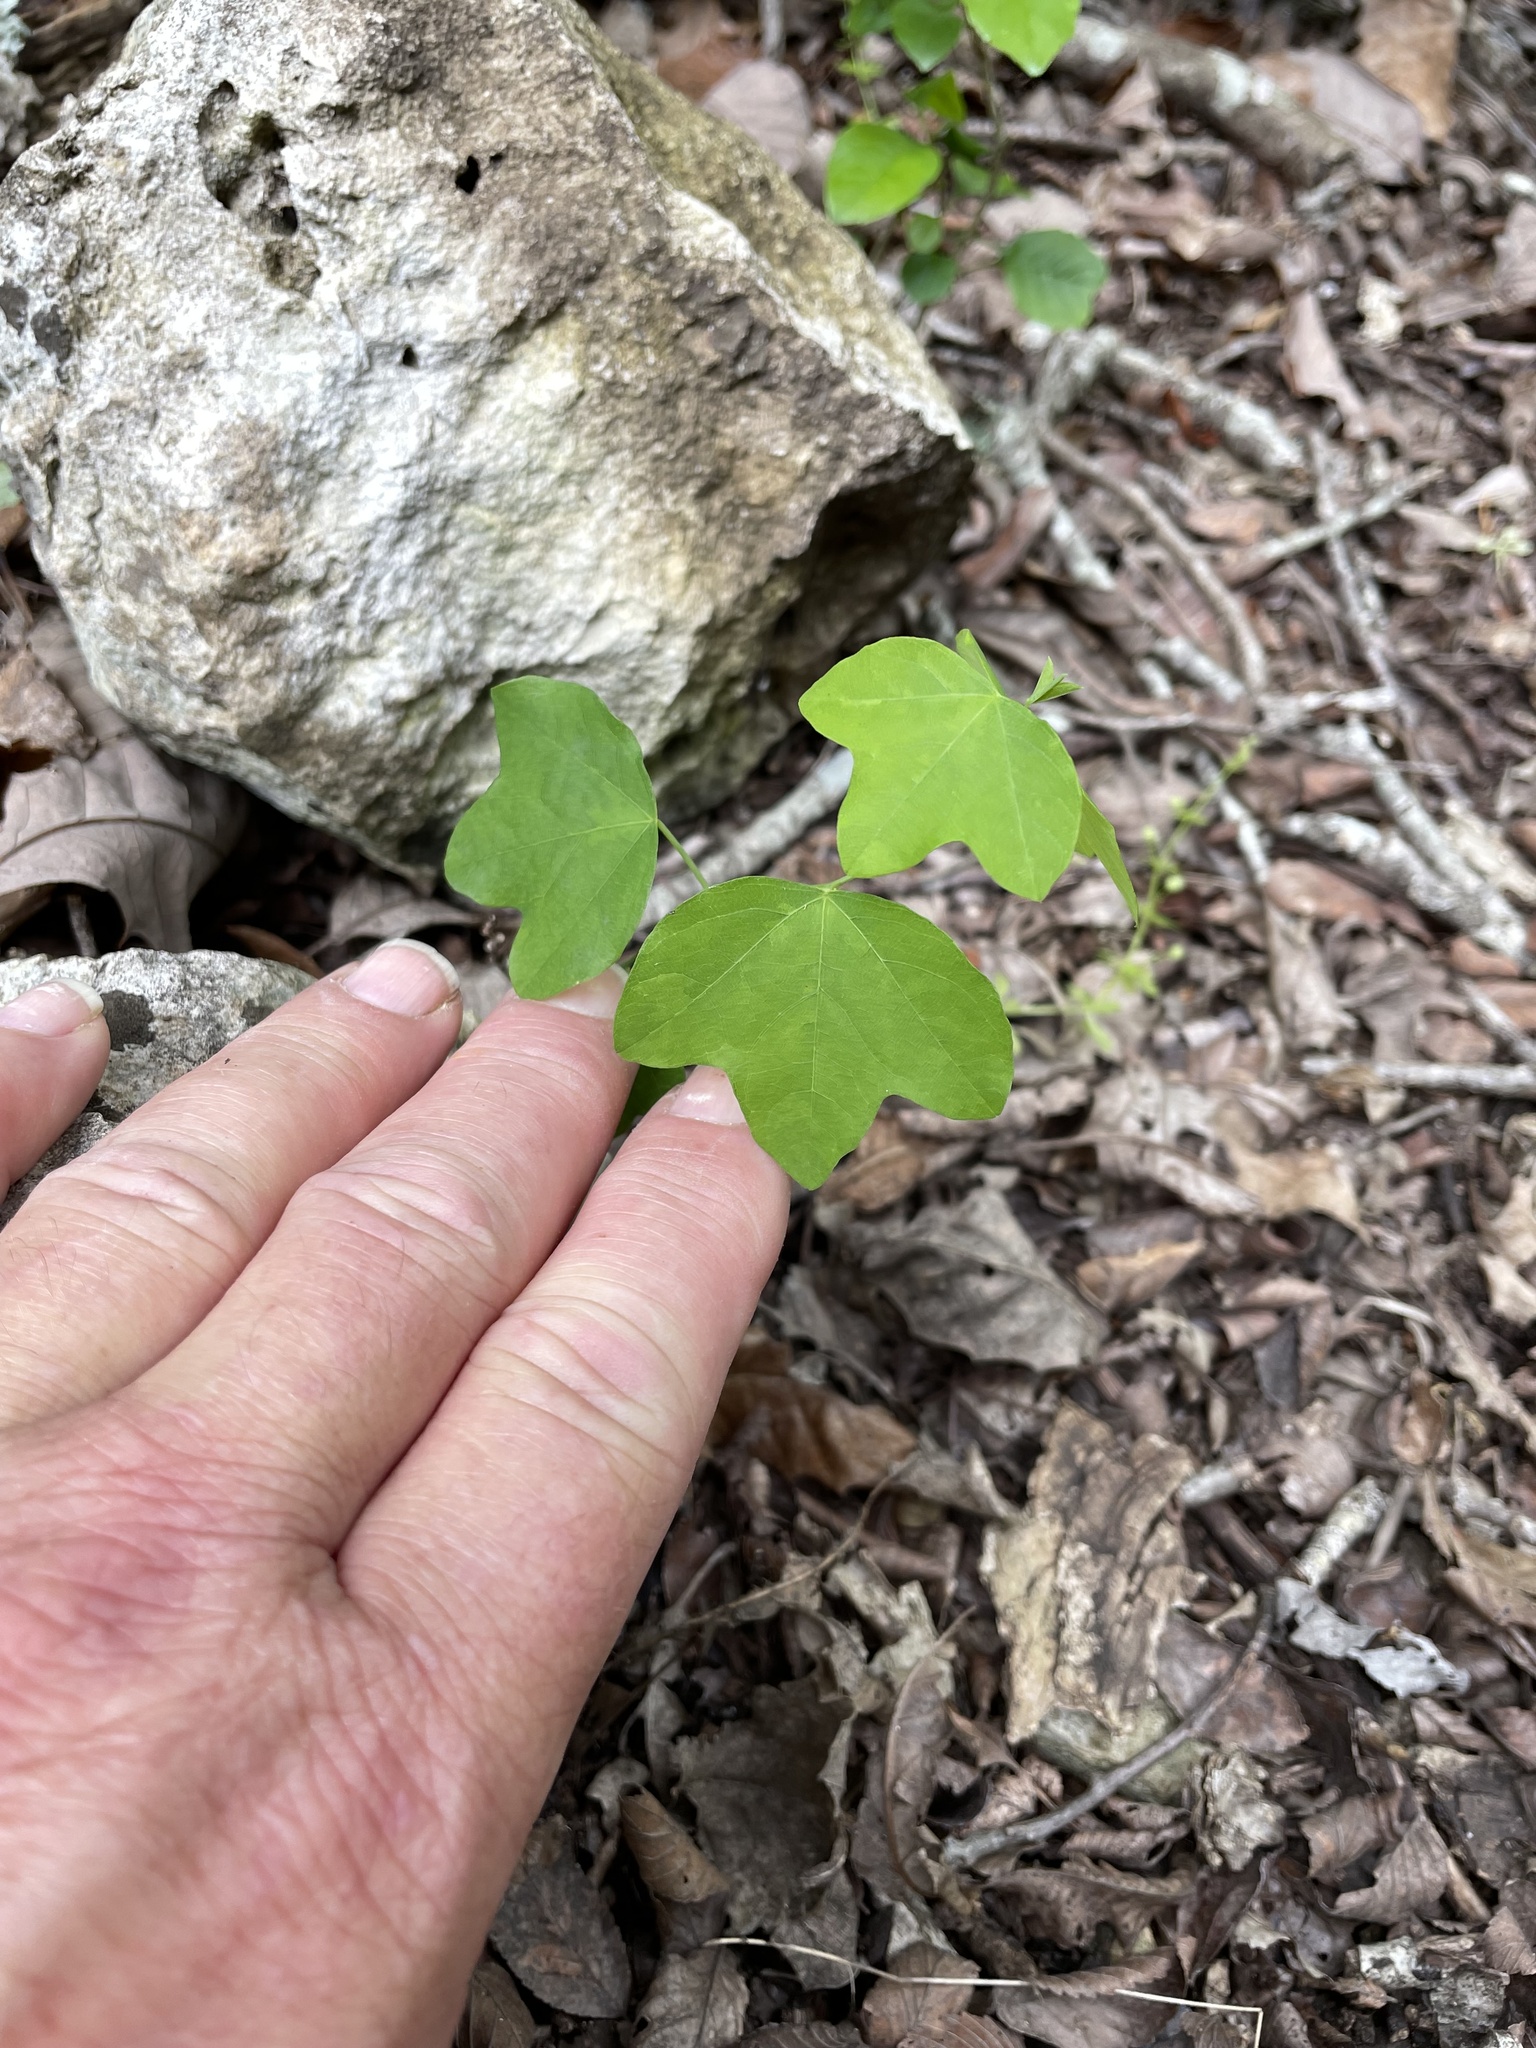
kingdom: Plantae
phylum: Tracheophyta
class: Magnoliopsida
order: Malpighiales
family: Passifloraceae
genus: Passiflora
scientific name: Passiflora lutea
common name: Yellow passionflower
